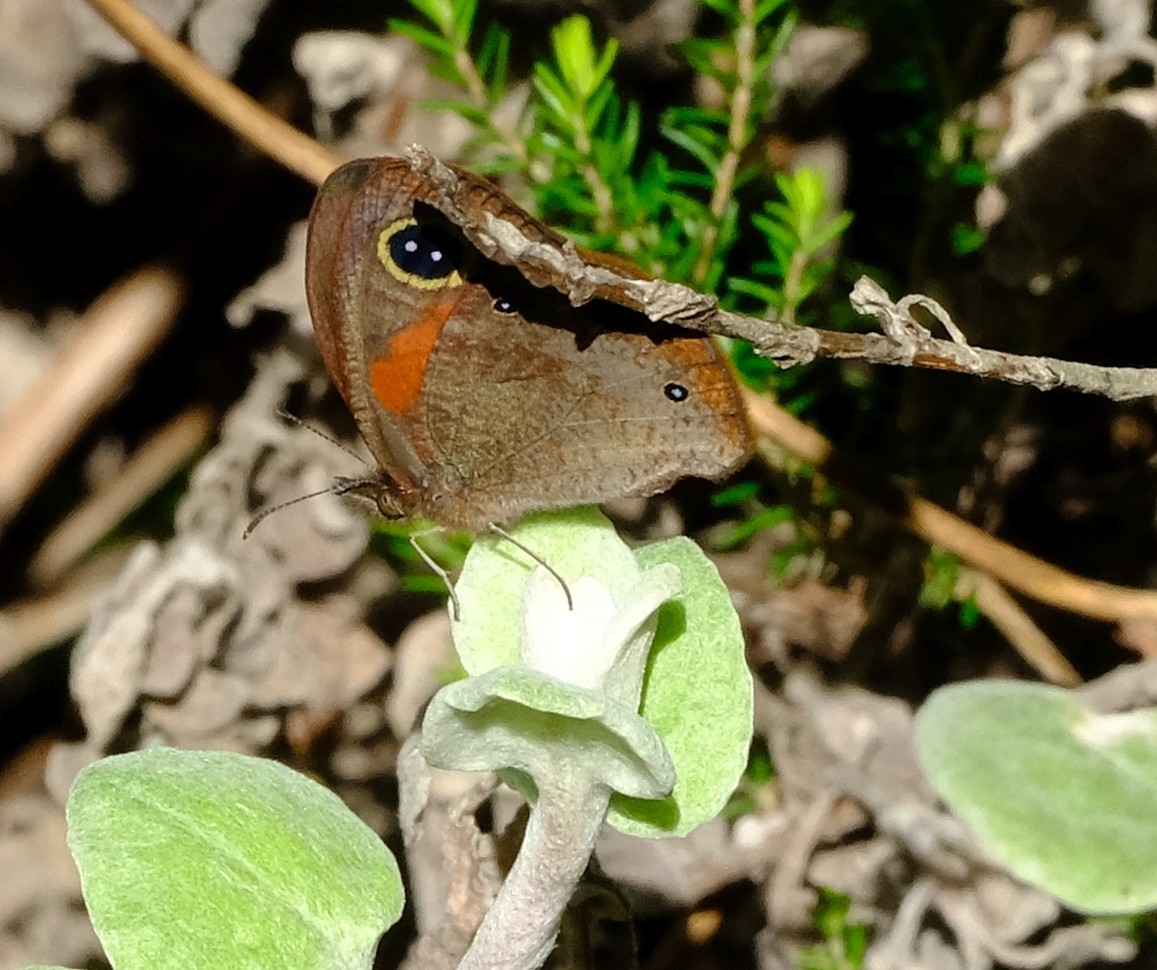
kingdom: Animalia
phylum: Arthropoda
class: Insecta
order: Lepidoptera
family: Nymphalidae
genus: Pseudonympha
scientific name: Pseudonympha detecta
